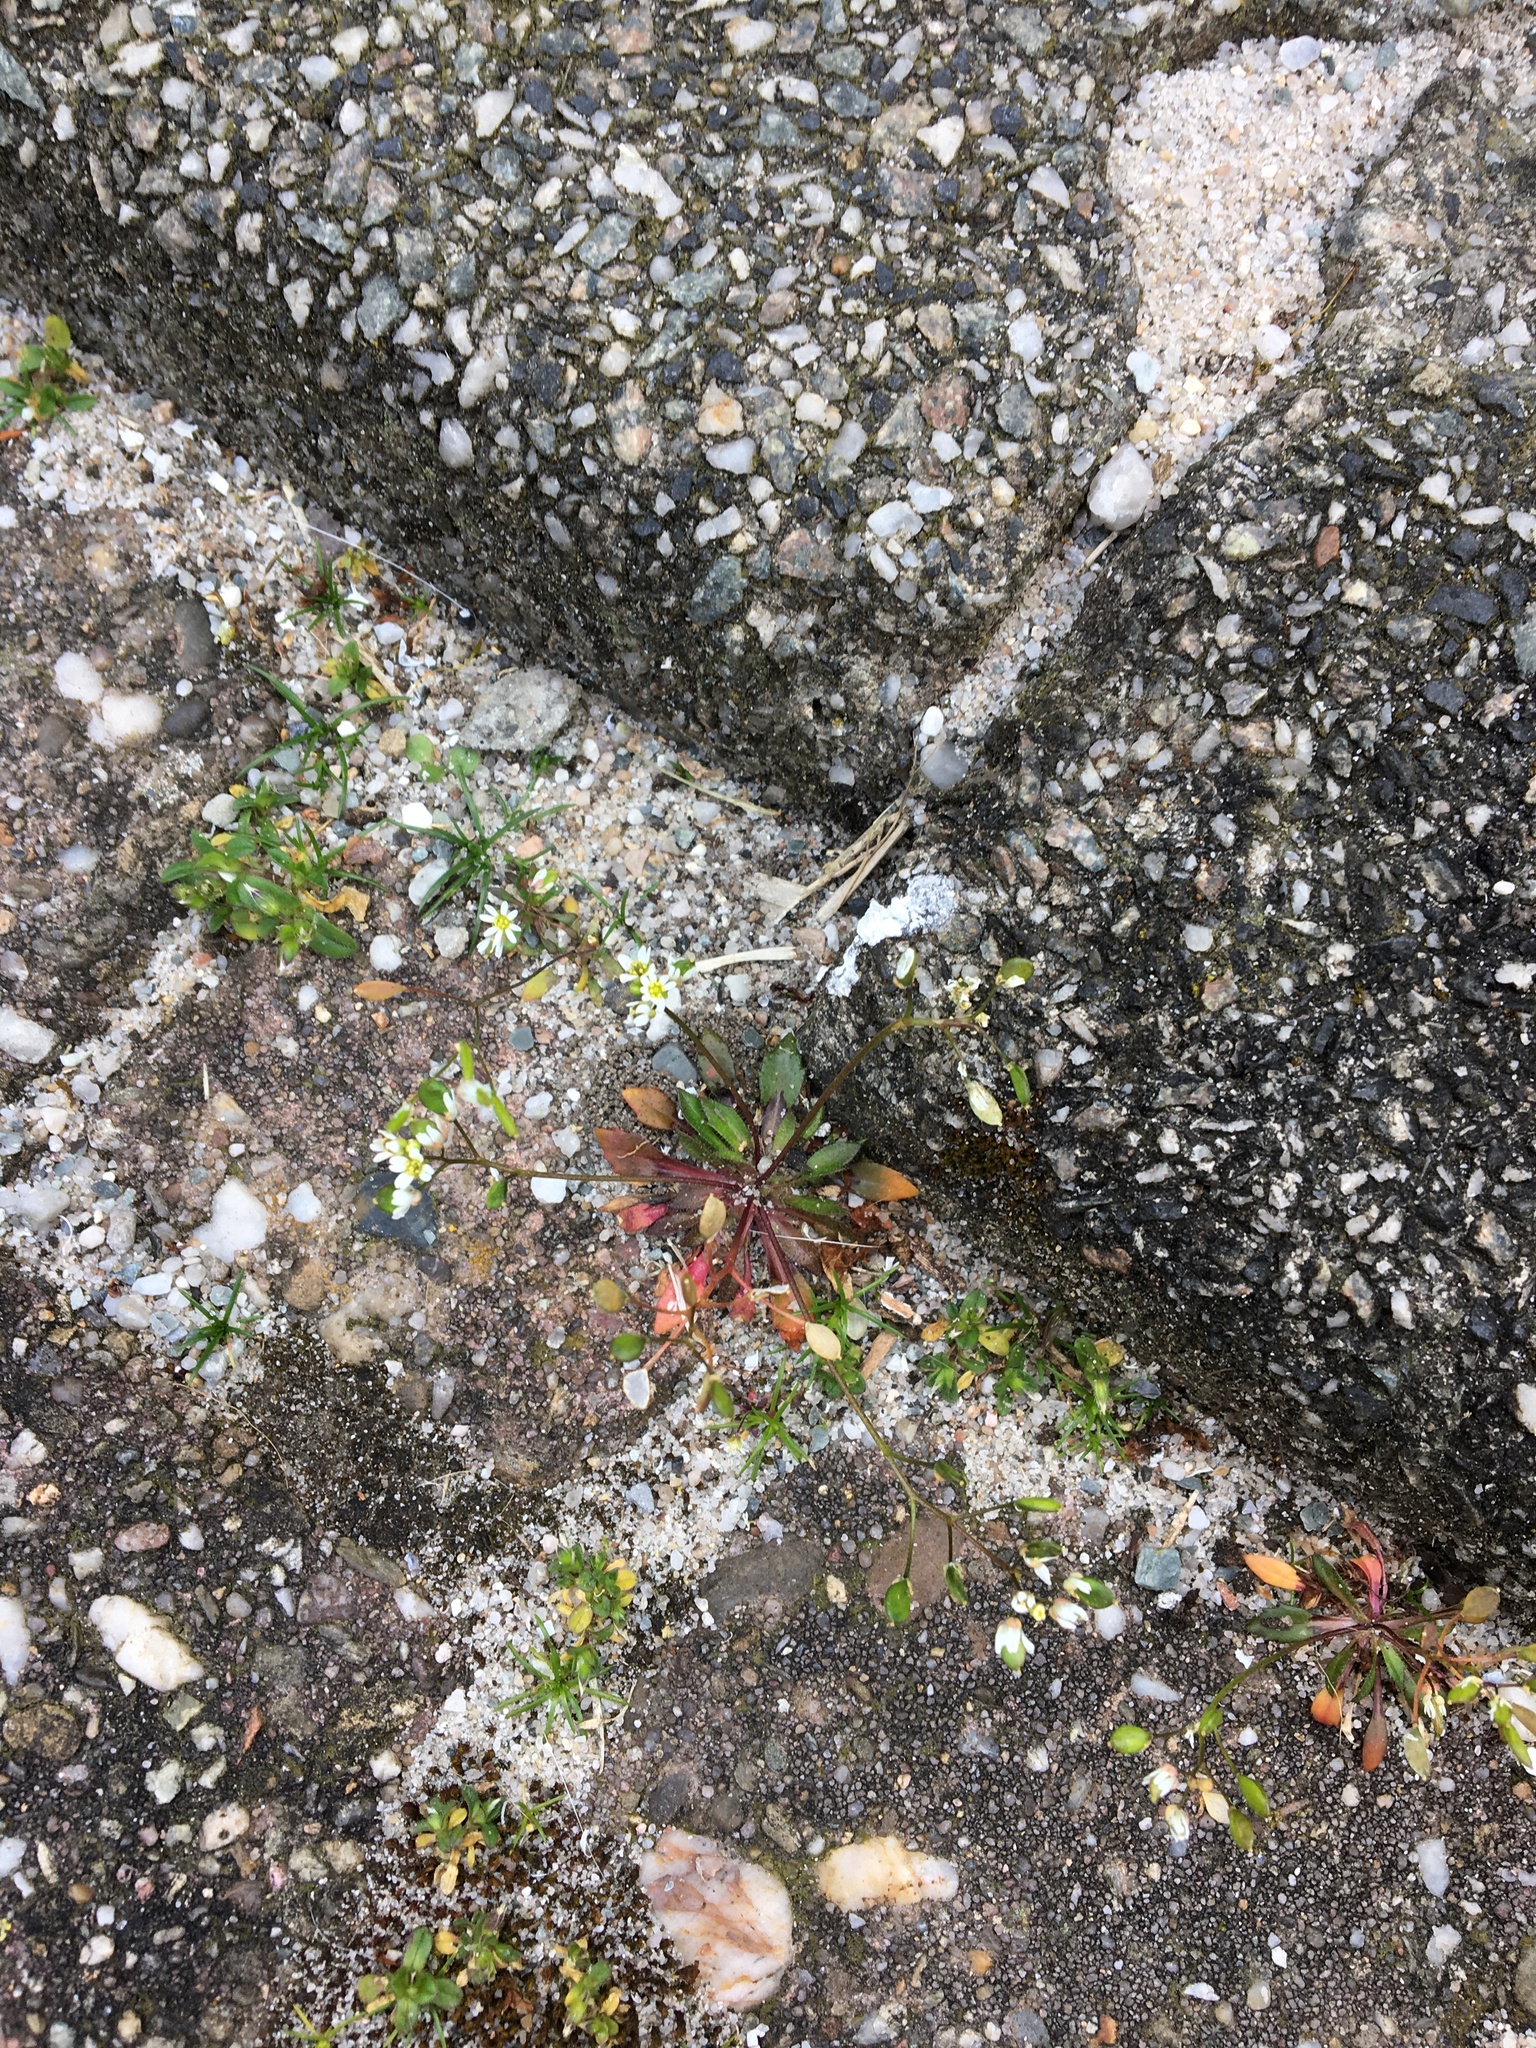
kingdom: Plantae
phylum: Tracheophyta
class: Magnoliopsida
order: Brassicales
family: Brassicaceae
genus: Draba
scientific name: Draba verna
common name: Spring draba
